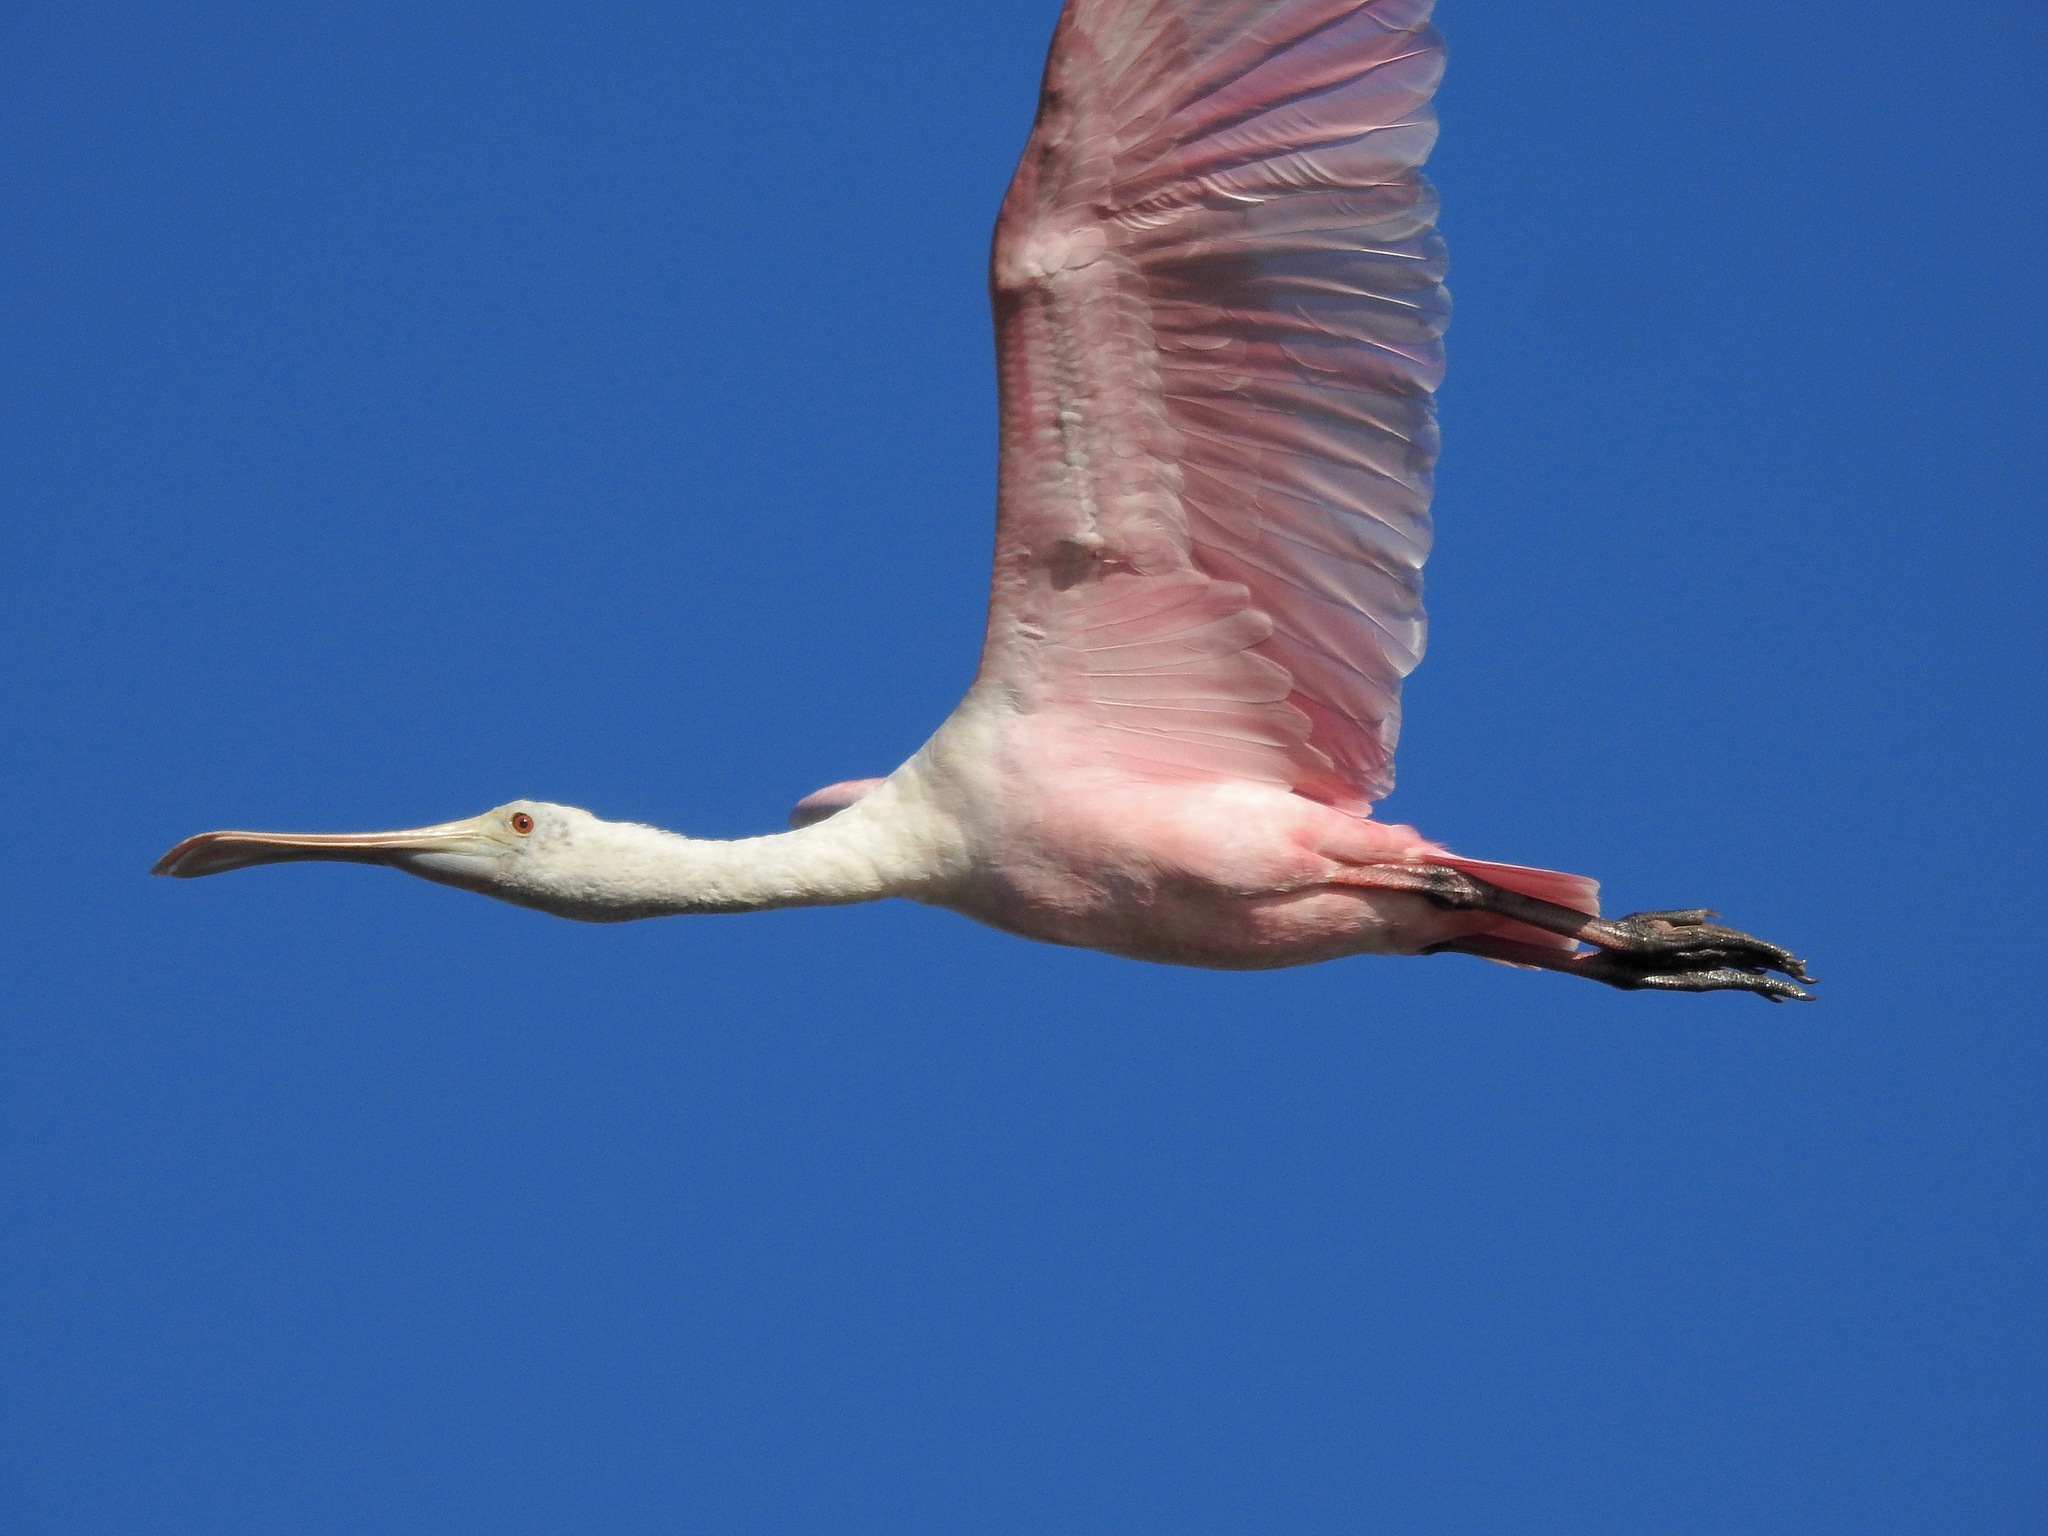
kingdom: Animalia
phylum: Chordata
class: Aves
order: Pelecaniformes
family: Threskiornithidae
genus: Platalea
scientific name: Platalea ajaja
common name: Roseate spoonbill
